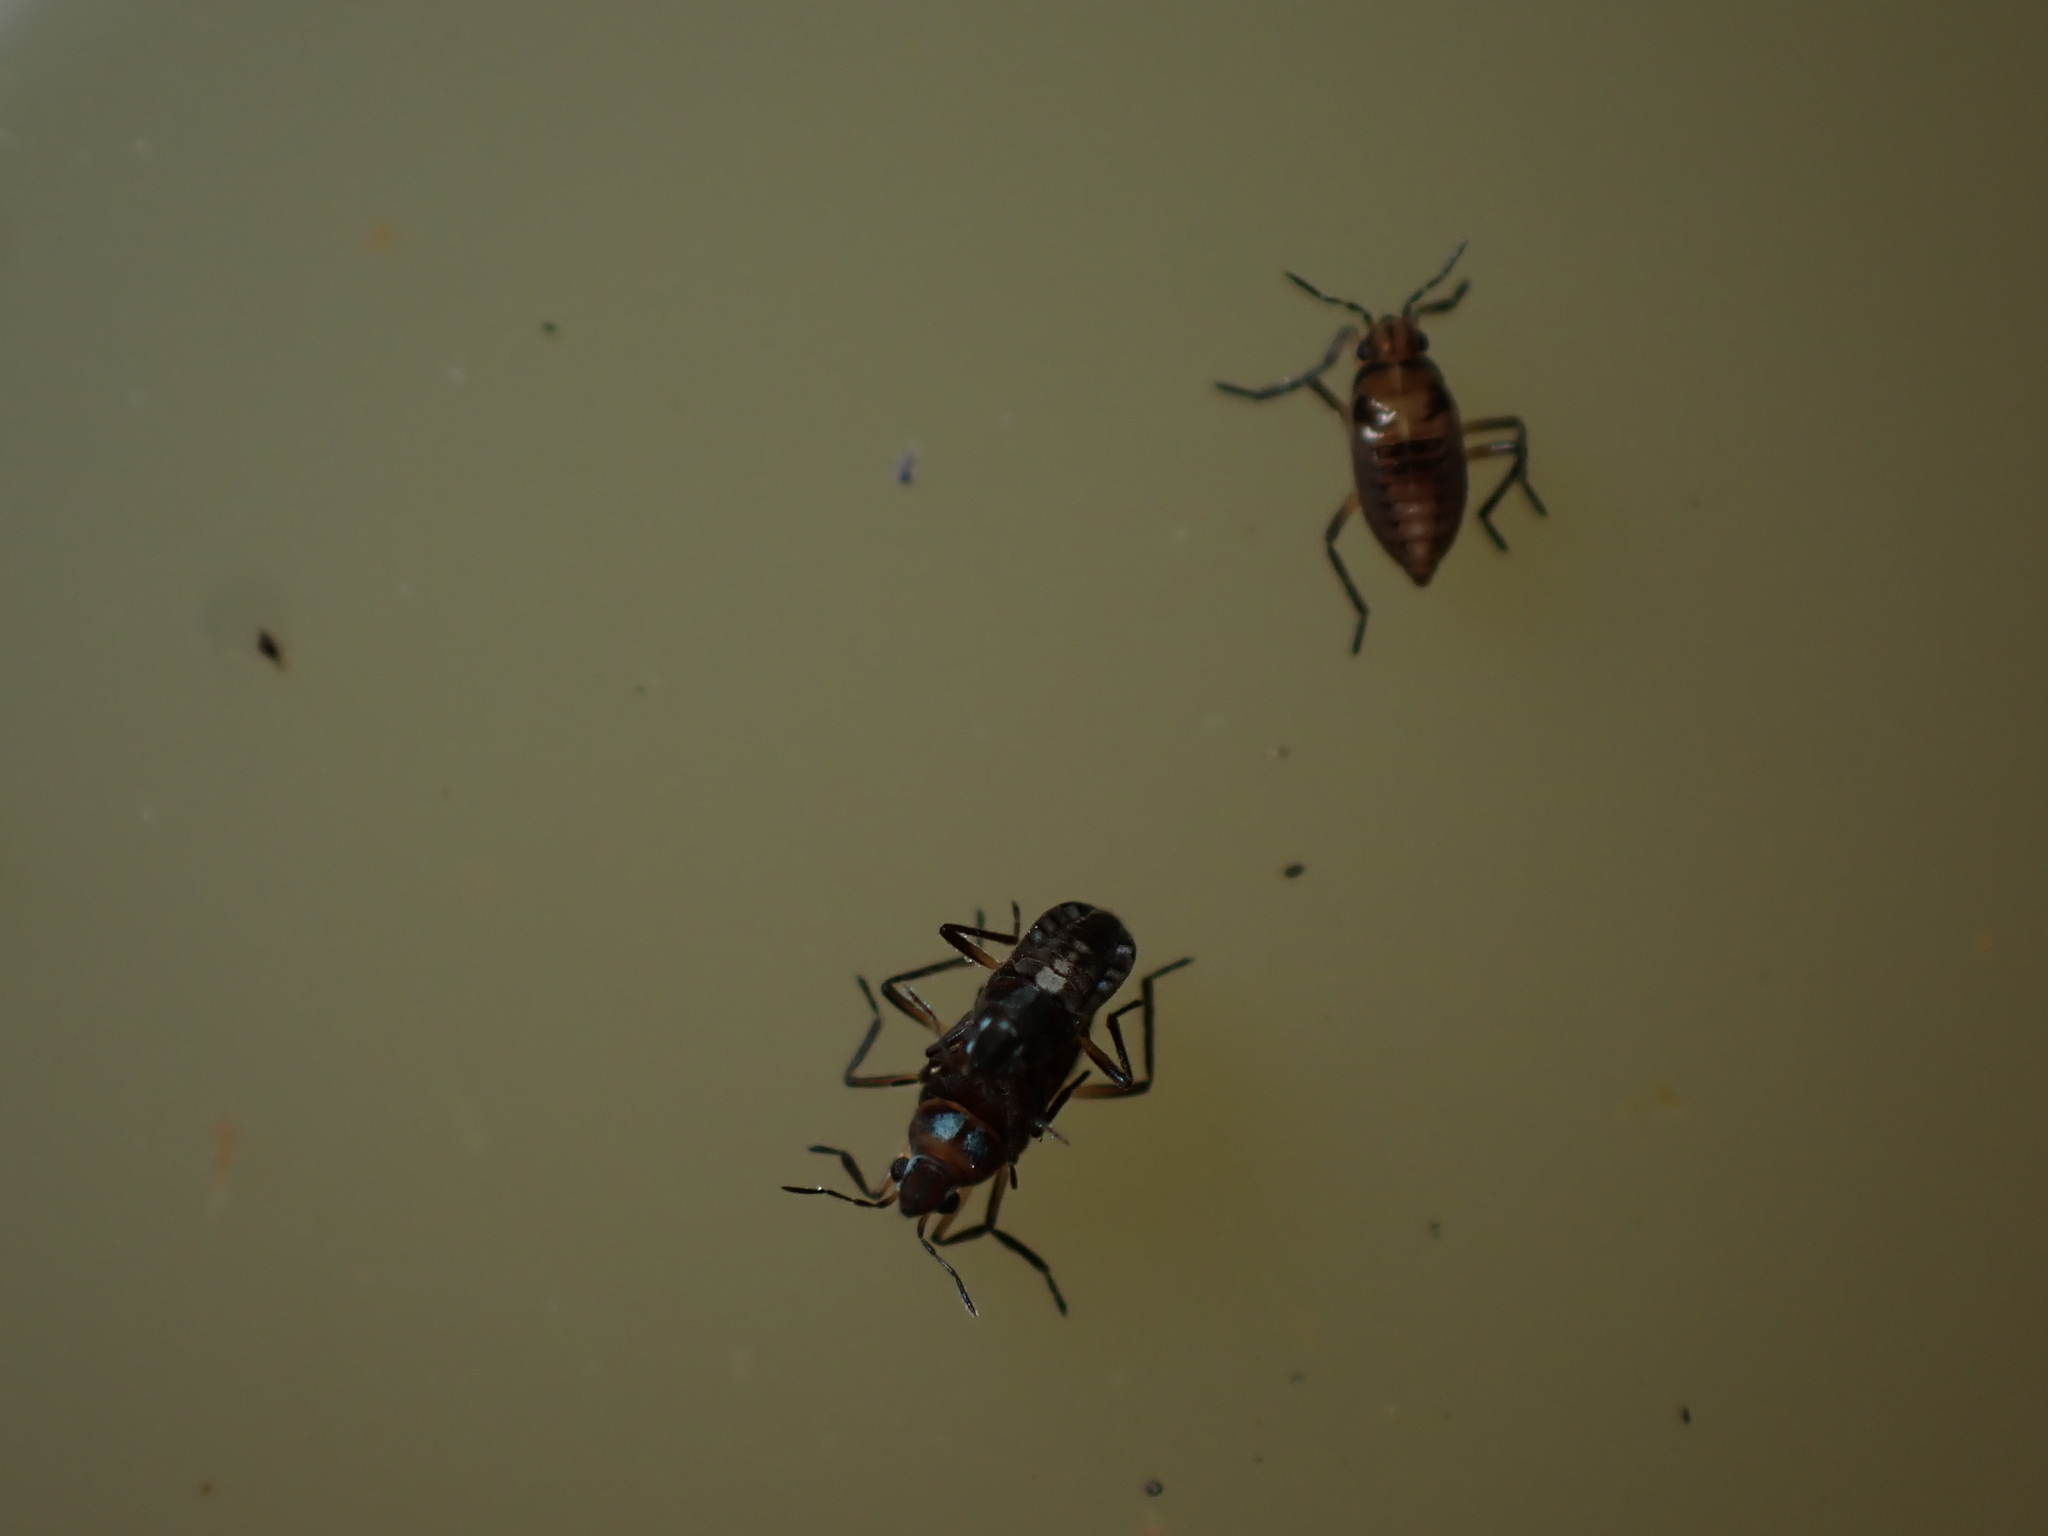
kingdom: Animalia
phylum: Arthropoda
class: Insecta
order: Hemiptera
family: Veliidae
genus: Microvelia
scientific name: Microvelia macgregori
